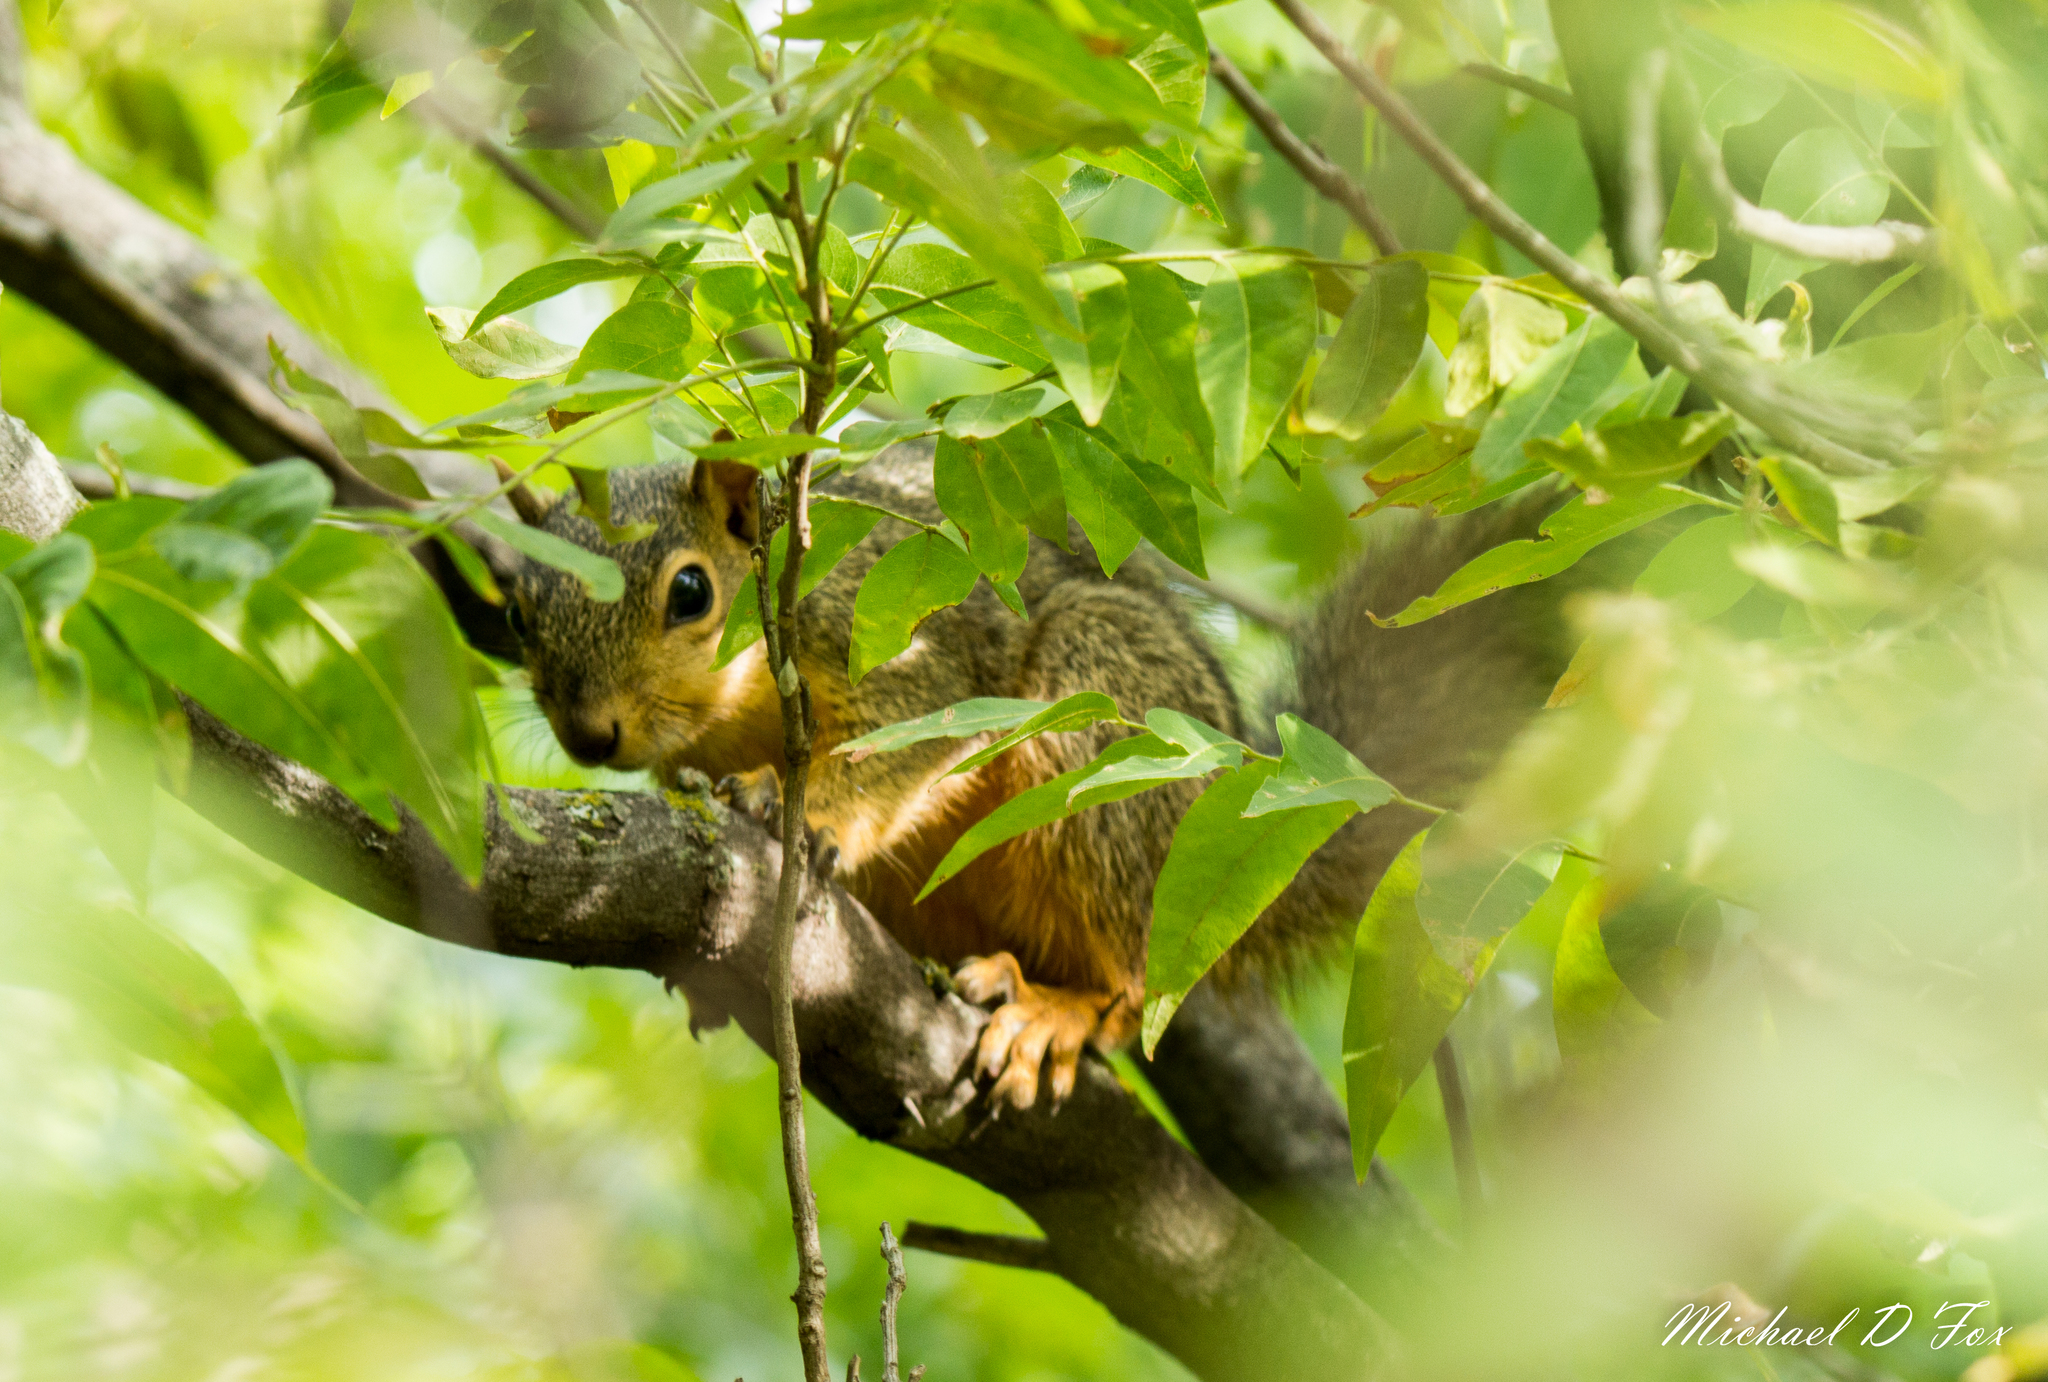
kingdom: Animalia
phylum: Chordata
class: Mammalia
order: Rodentia
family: Sciuridae
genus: Sciurus
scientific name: Sciurus niger
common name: Fox squirrel
